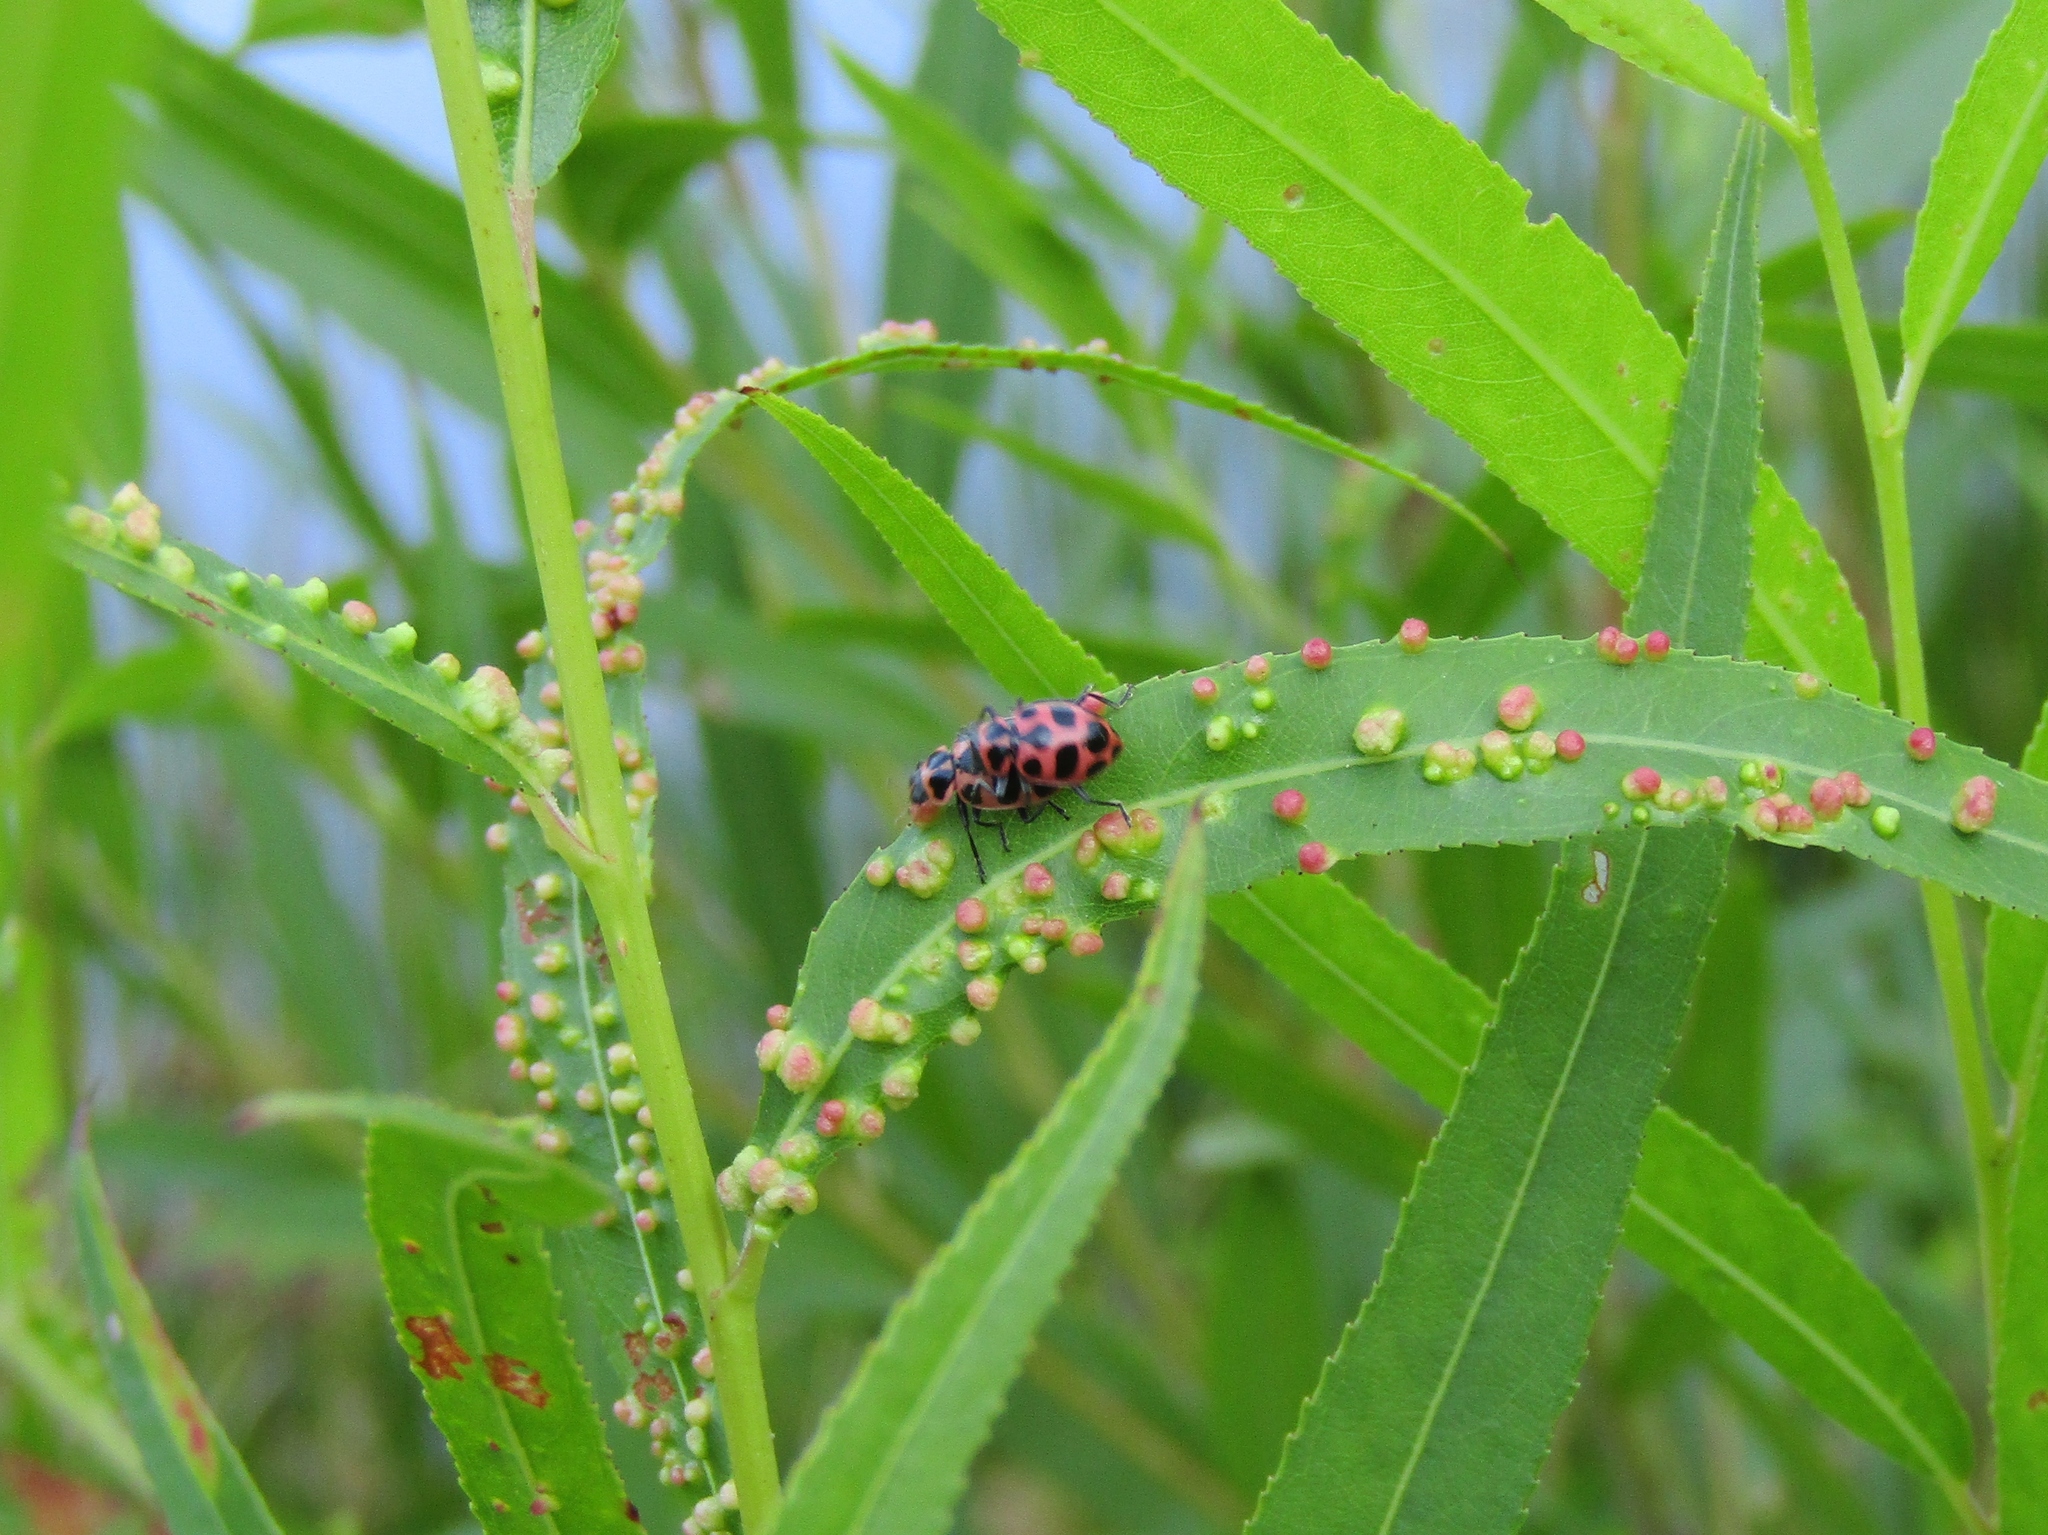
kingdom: Animalia
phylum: Arthropoda
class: Insecta
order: Coleoptera
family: Coccinellidae
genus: Coleomegilla
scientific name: Coleomegilla maculata
